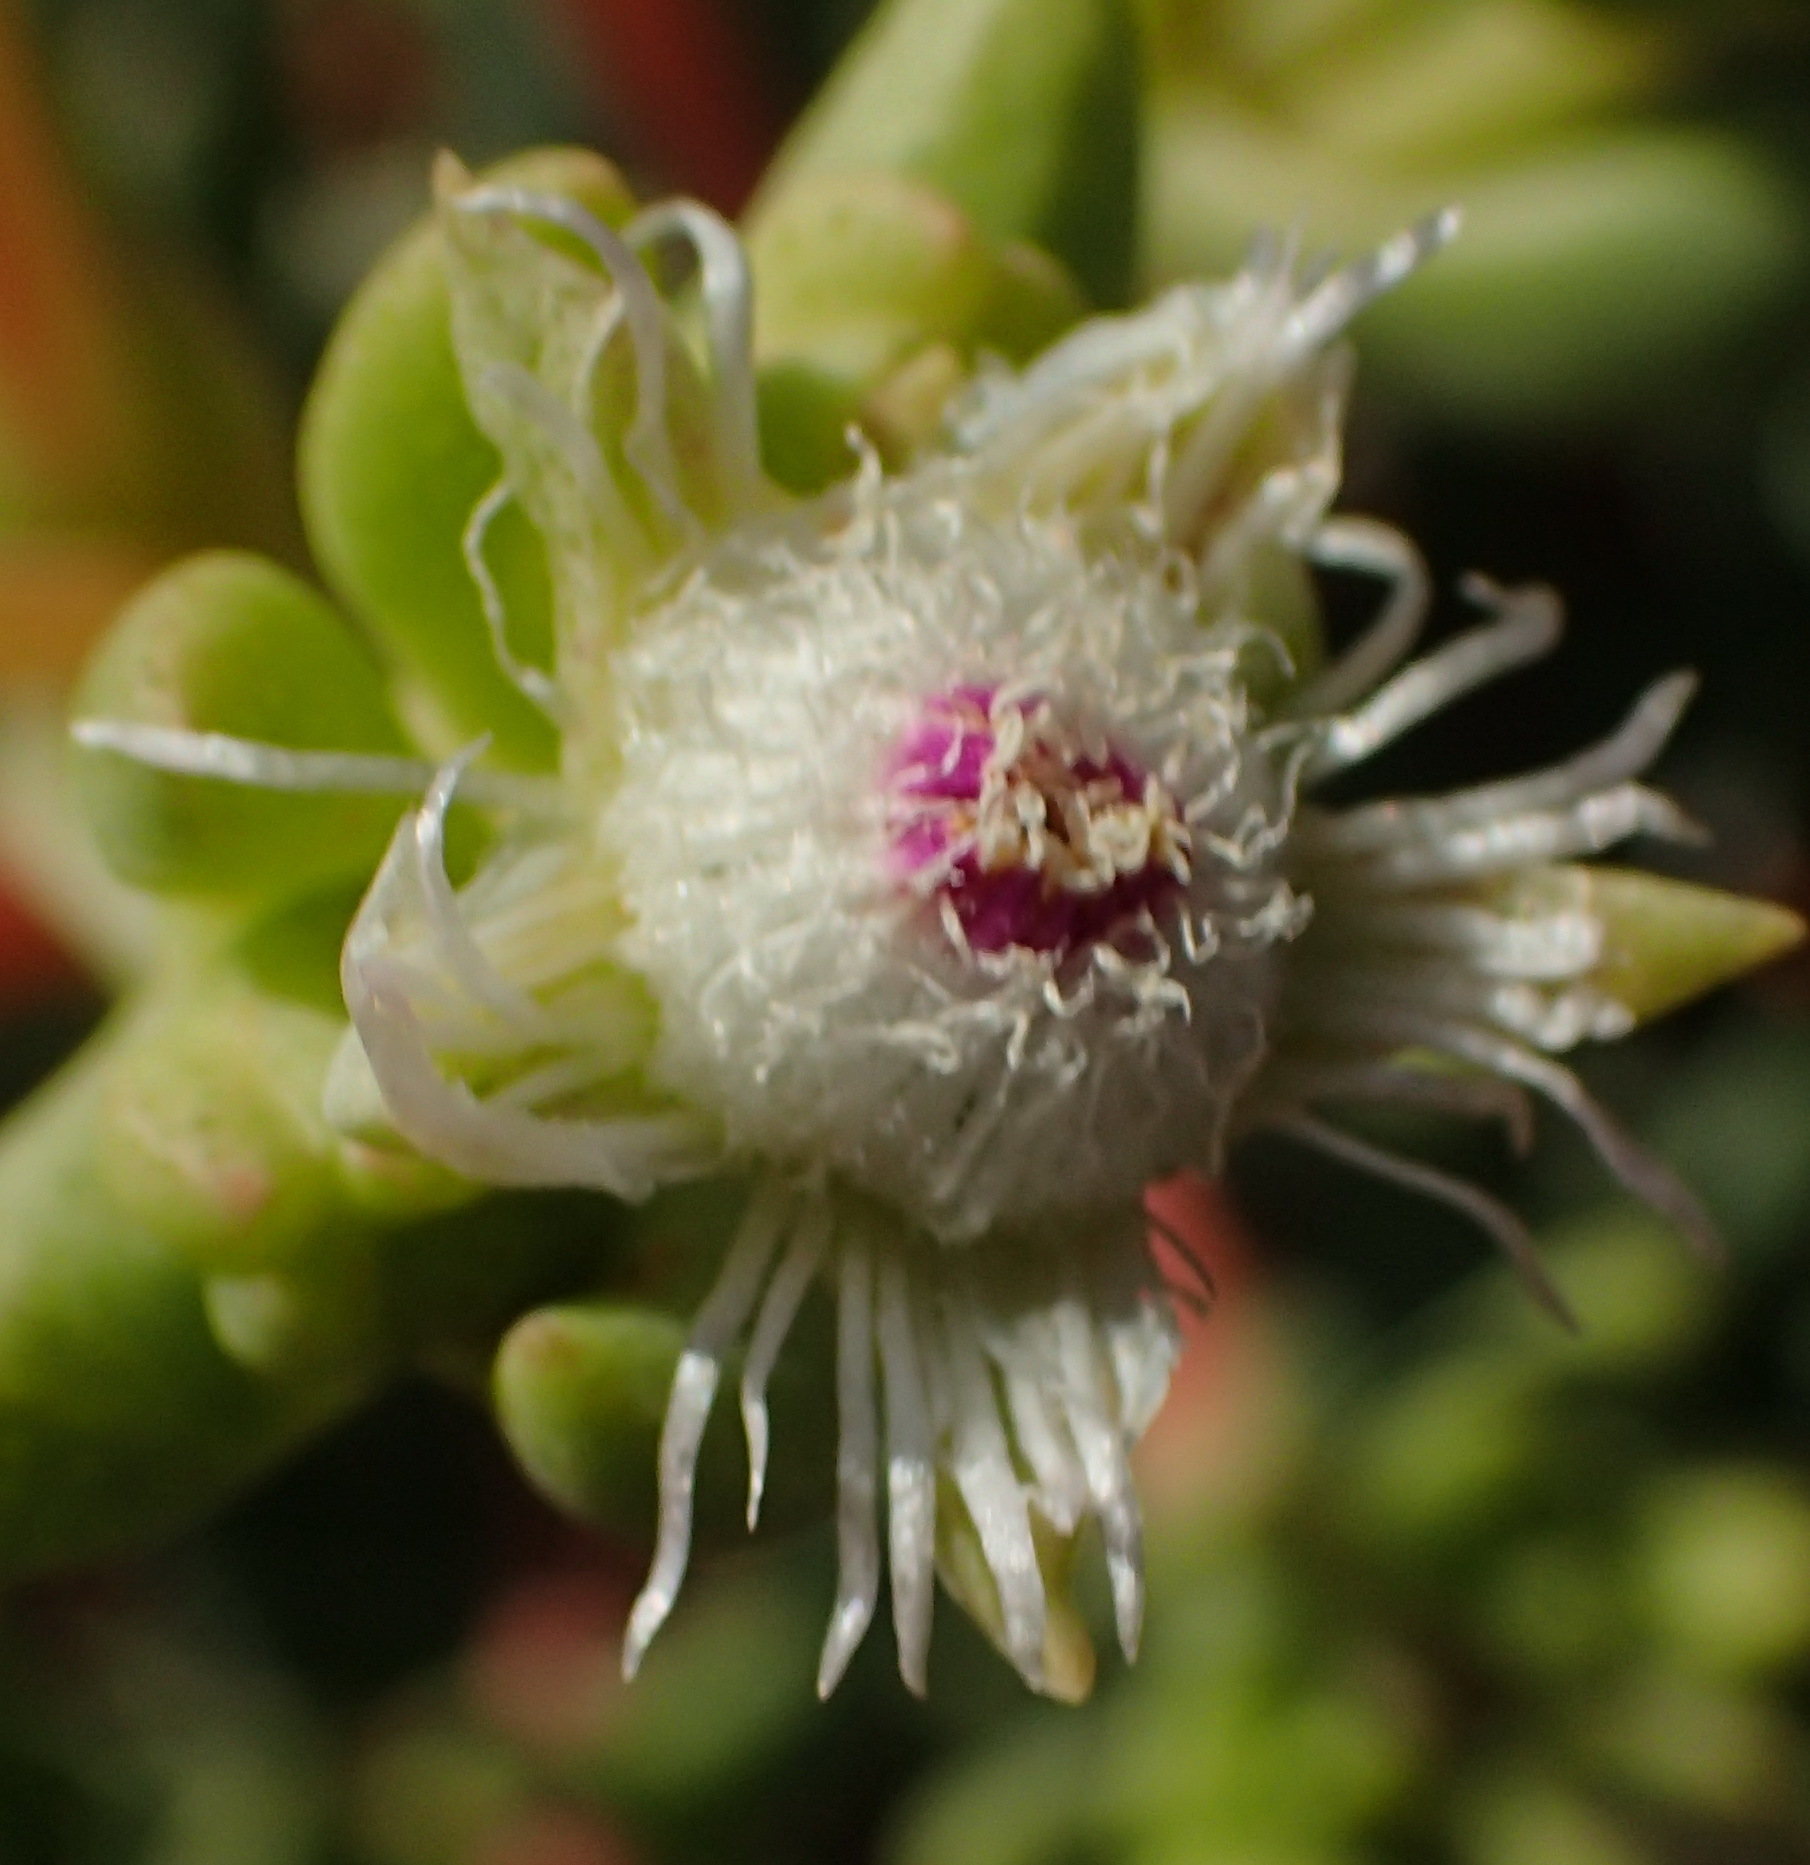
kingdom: Plantae
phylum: Tracheophyta
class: Magnoliopsida
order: Caryophyllales
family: Aizoaceae
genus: Stoeberia
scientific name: Stoeberia beetzii
